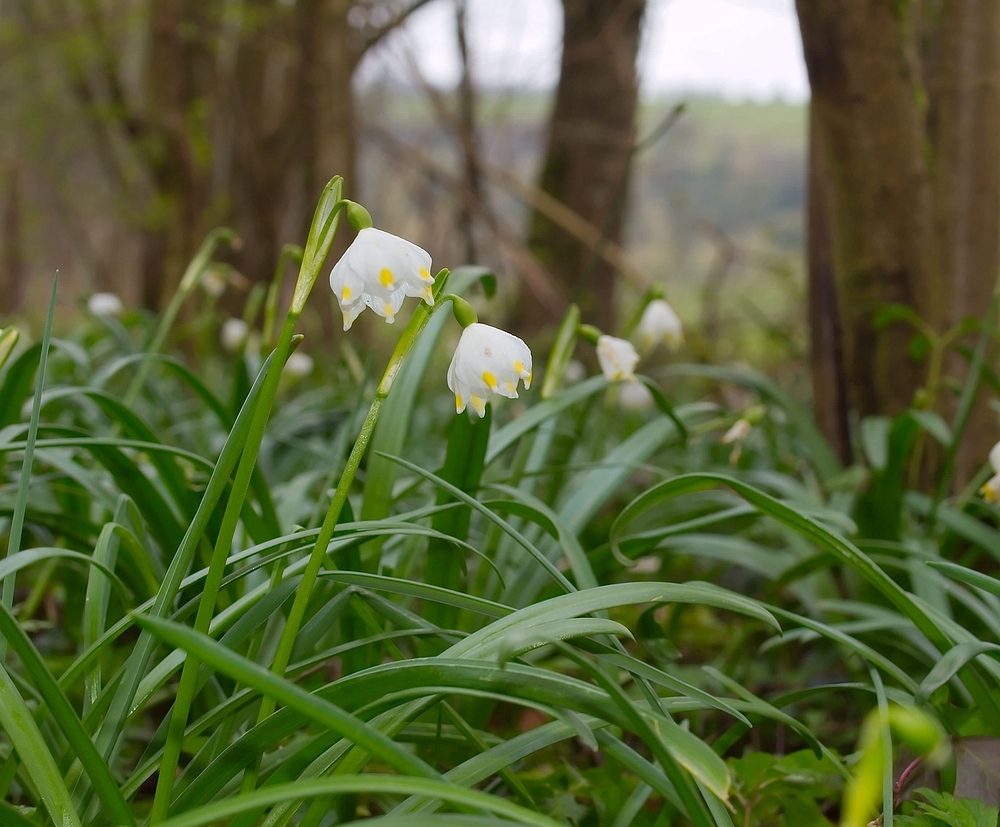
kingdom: Plantae
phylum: Tracheophyta
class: Liliopsida
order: Asparagales
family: Amaryllidaceae
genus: Leucojum
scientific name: Leucojum vernum
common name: Spring snowflake
